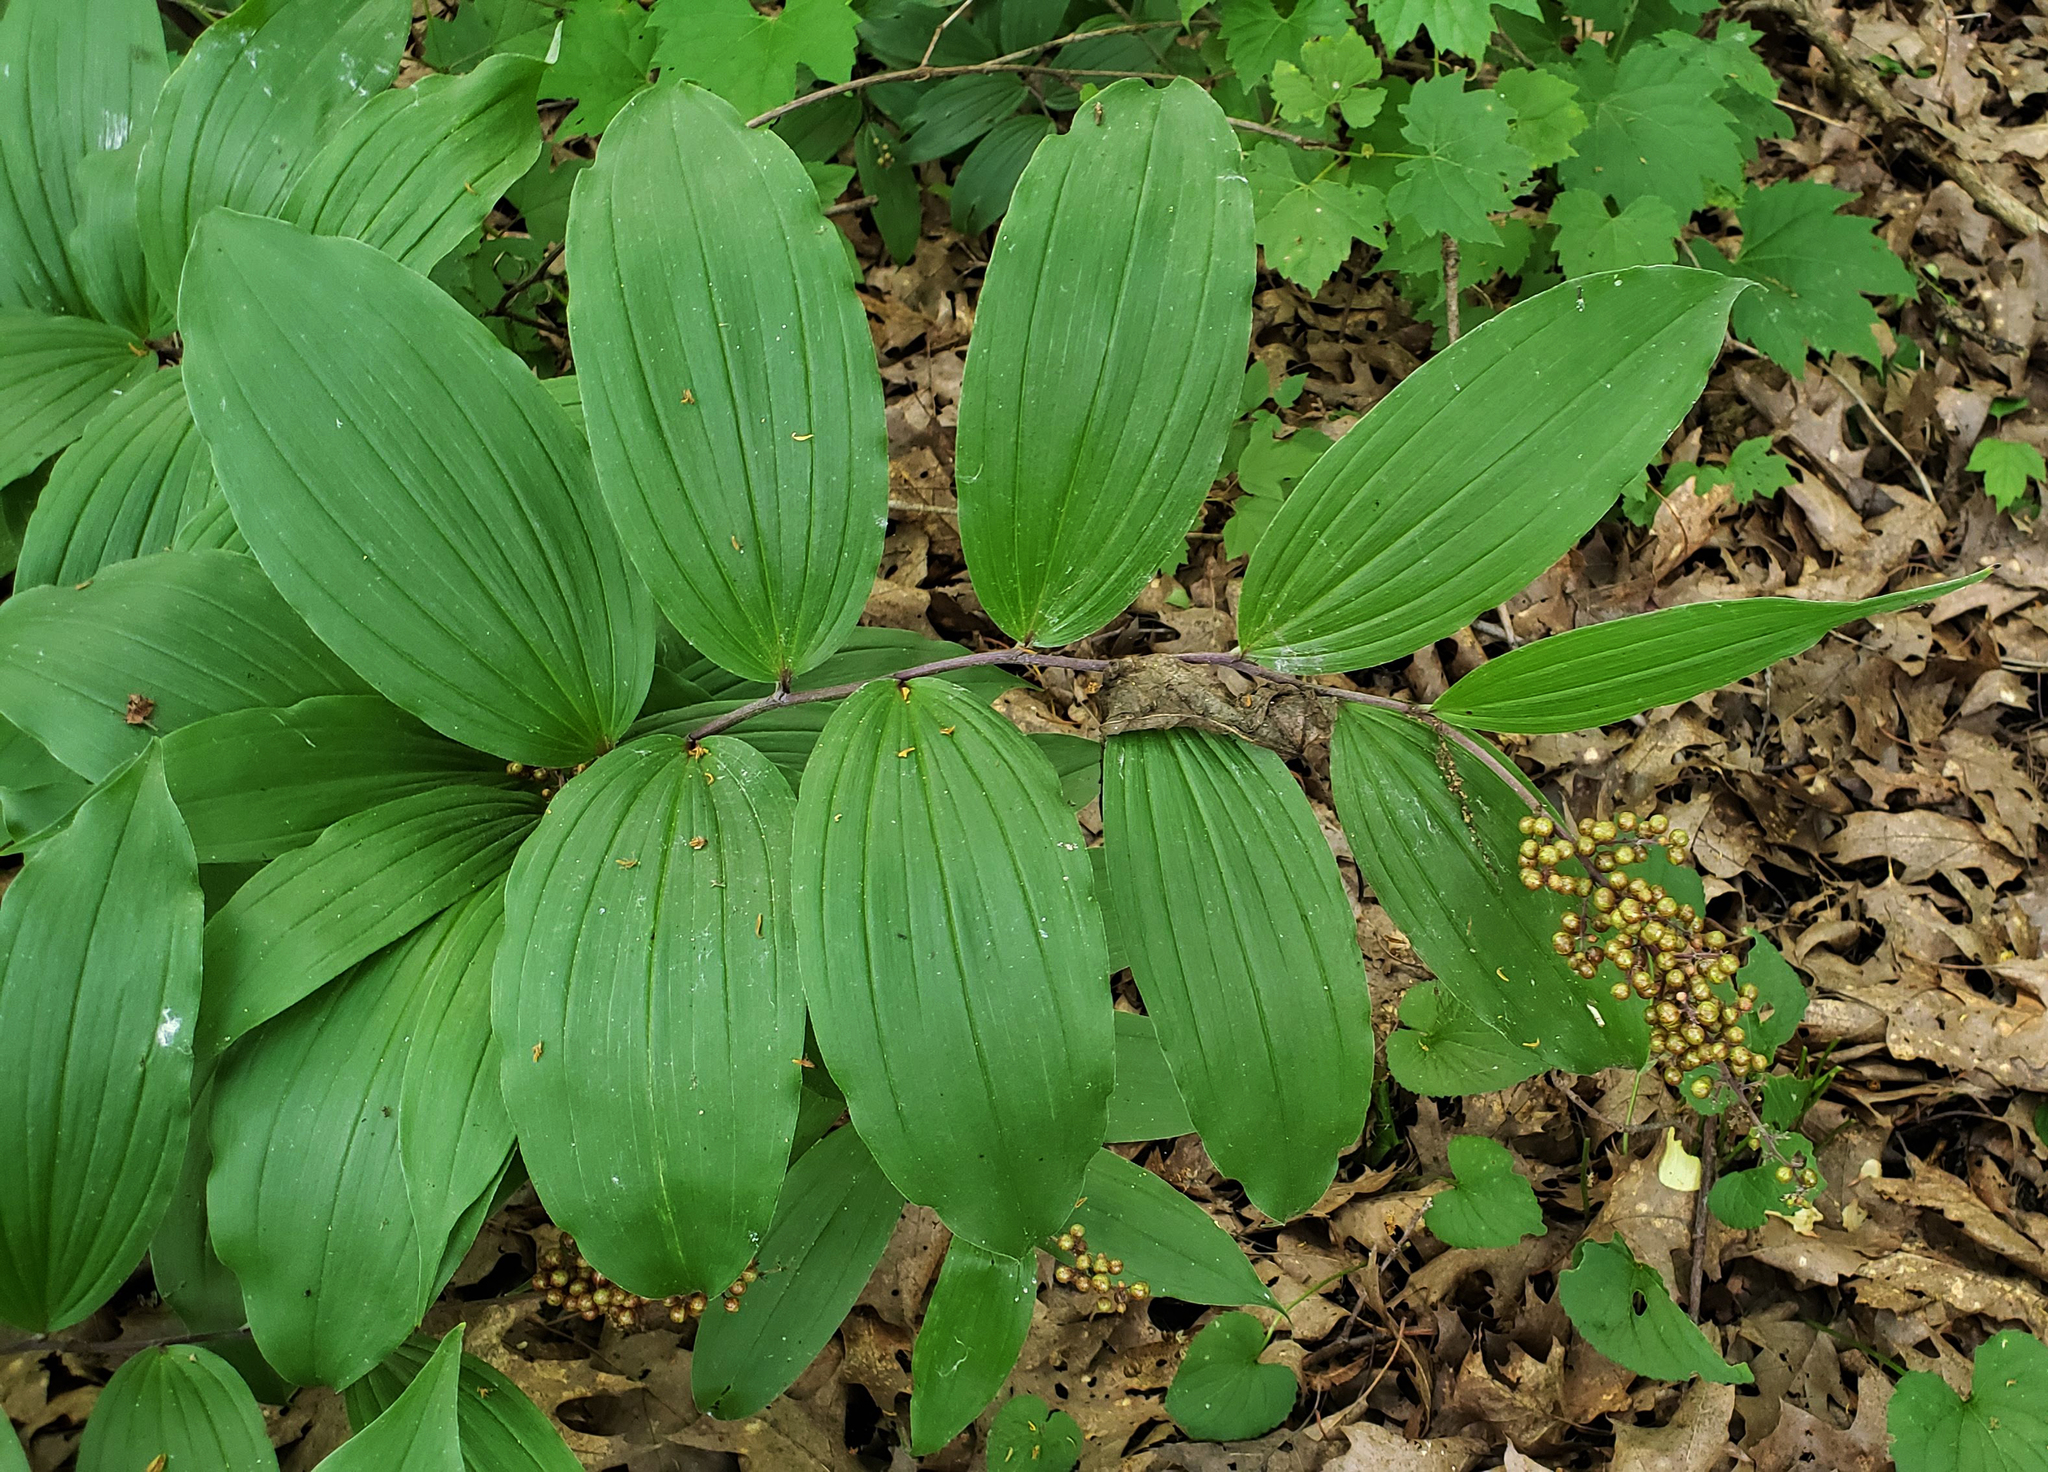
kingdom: Plantae
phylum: Tracheophyta
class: Liliopsida
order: Asparagales
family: Asparagaceae
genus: Maianthemum
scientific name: Maianthemum racemosum
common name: False spikenard
